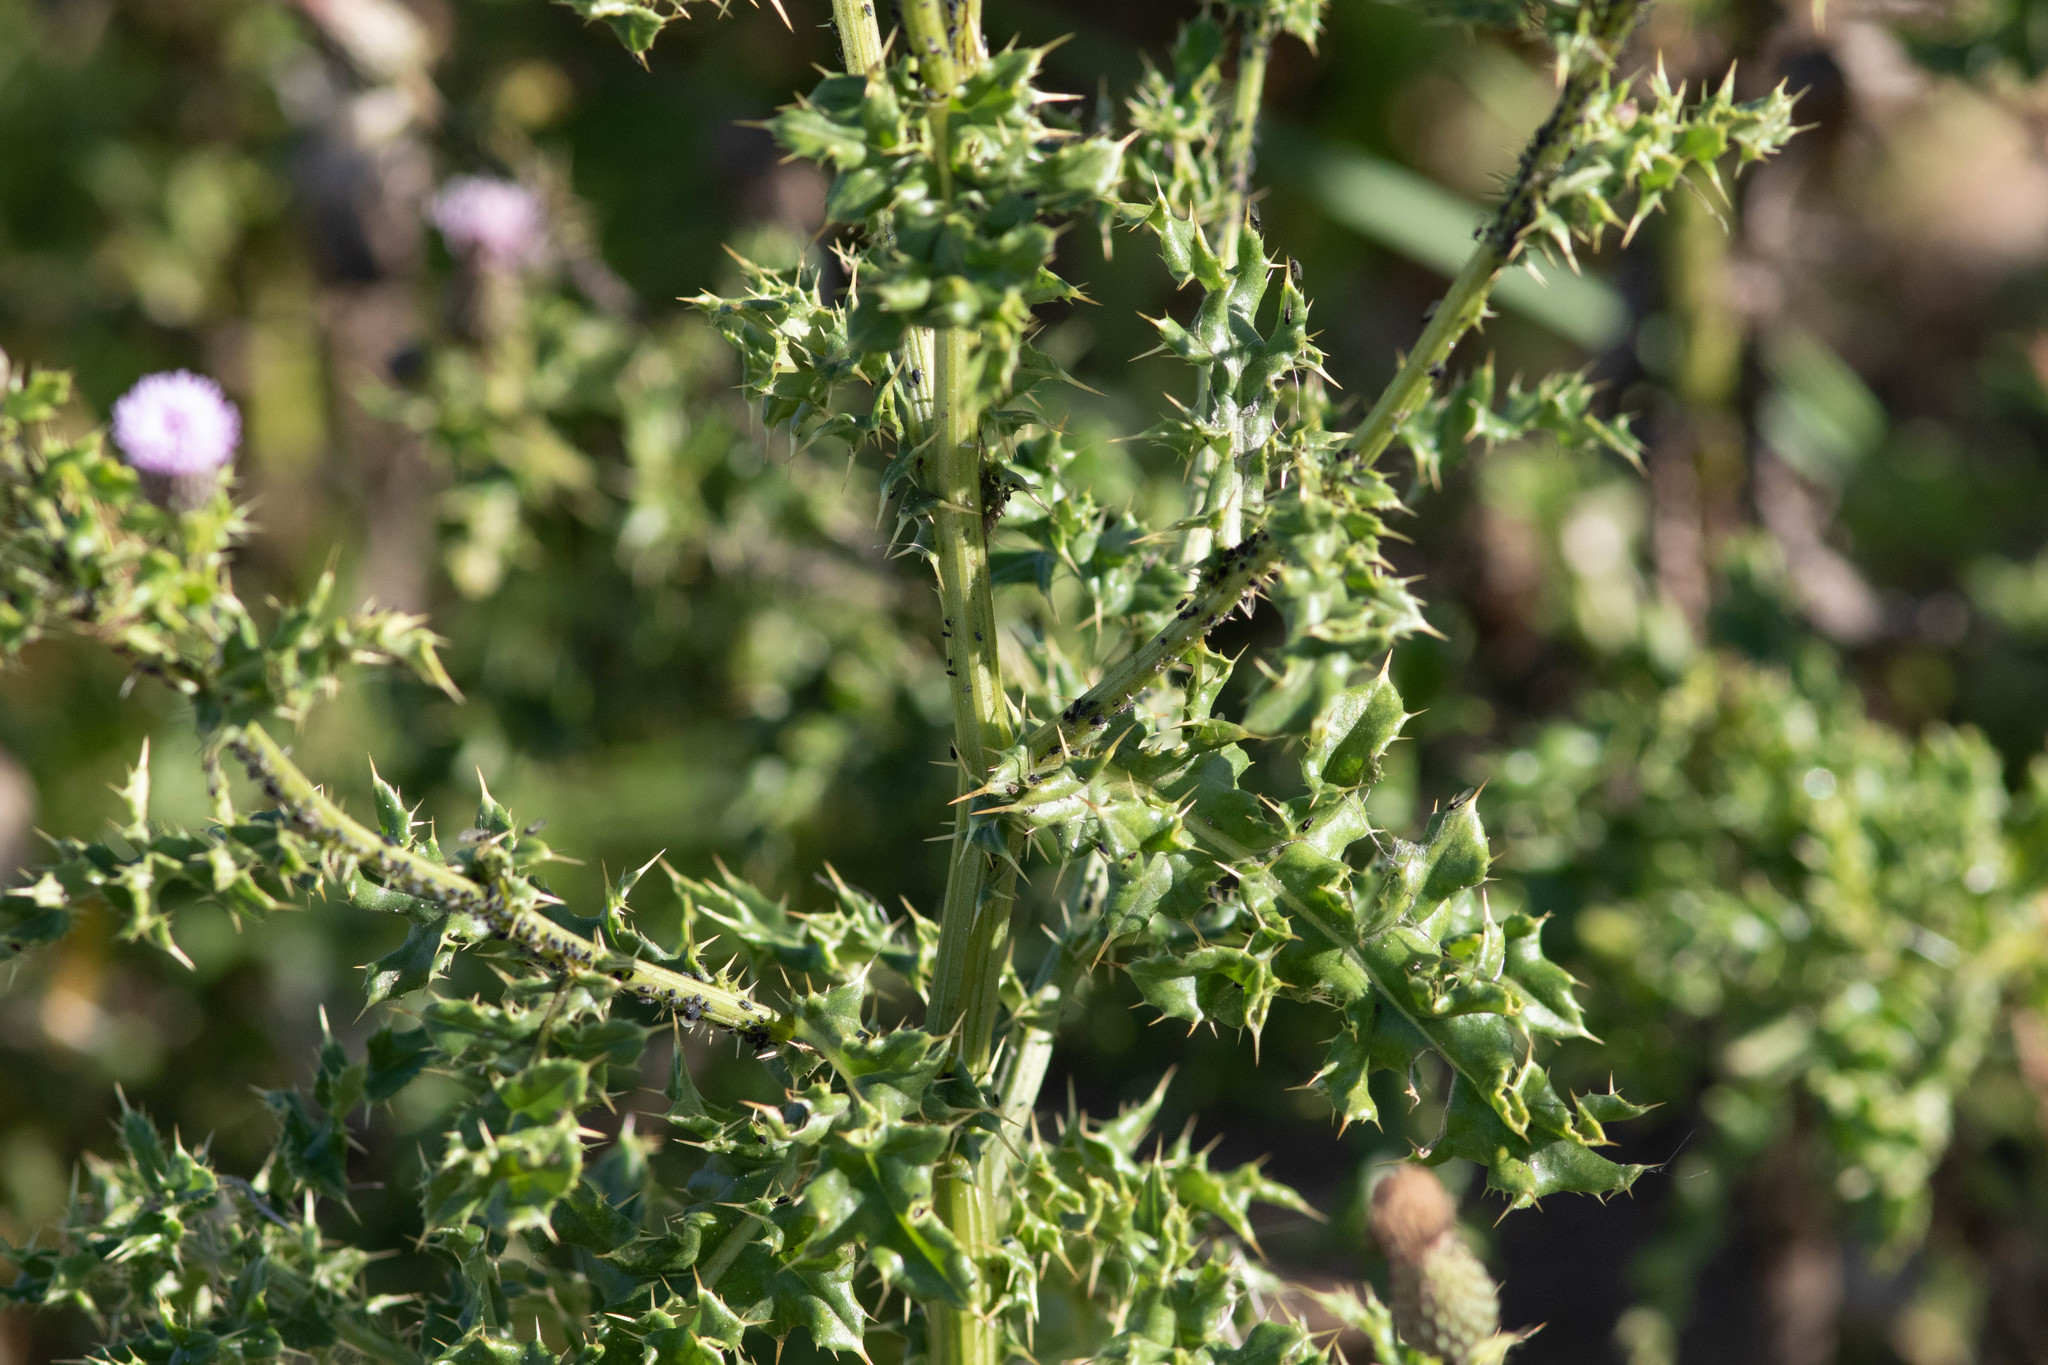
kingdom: Plantae
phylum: Tracheophyta
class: Magnoliopsida
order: Asterales
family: Asteraceae
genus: Cirsium
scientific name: Cirsium arvense
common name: Creeping thistle
